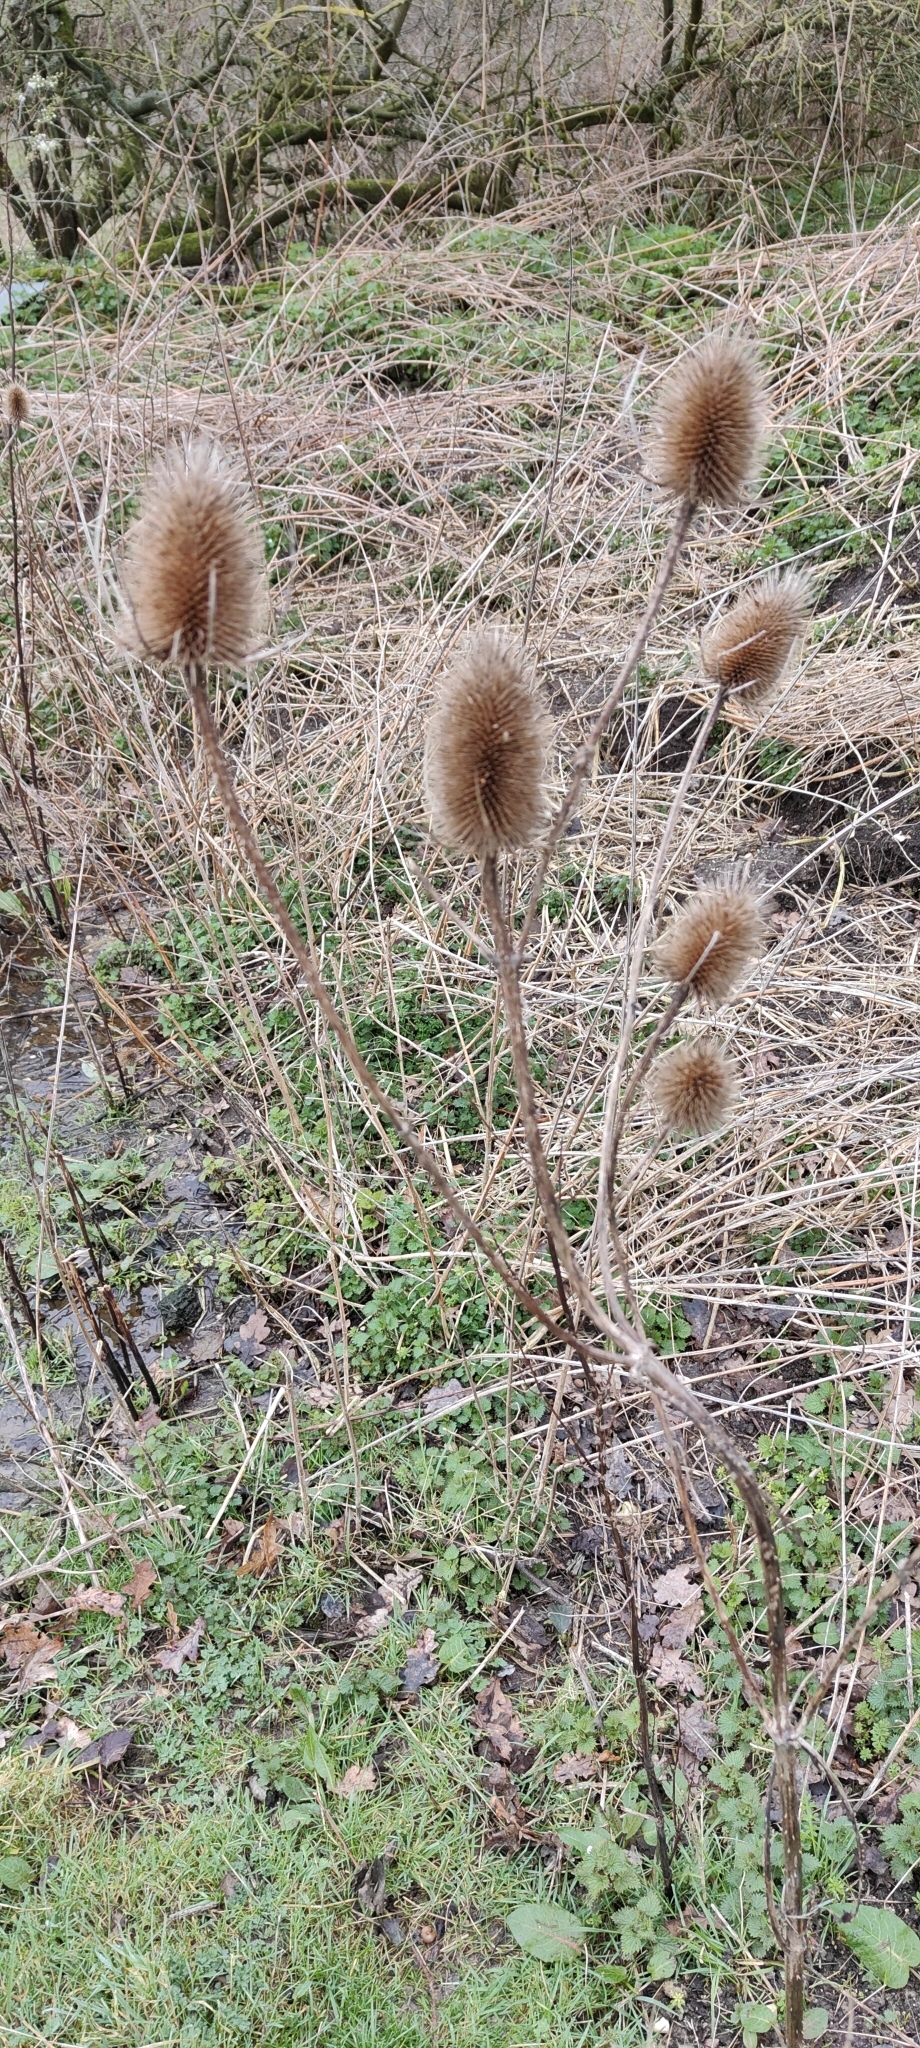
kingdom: Plantae
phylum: Tracheophyta
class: Magnoliopsida
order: Dipsacales
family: Caprifoliaceae
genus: Dipsacus
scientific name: Dipsacus fullonum
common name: Teasel
